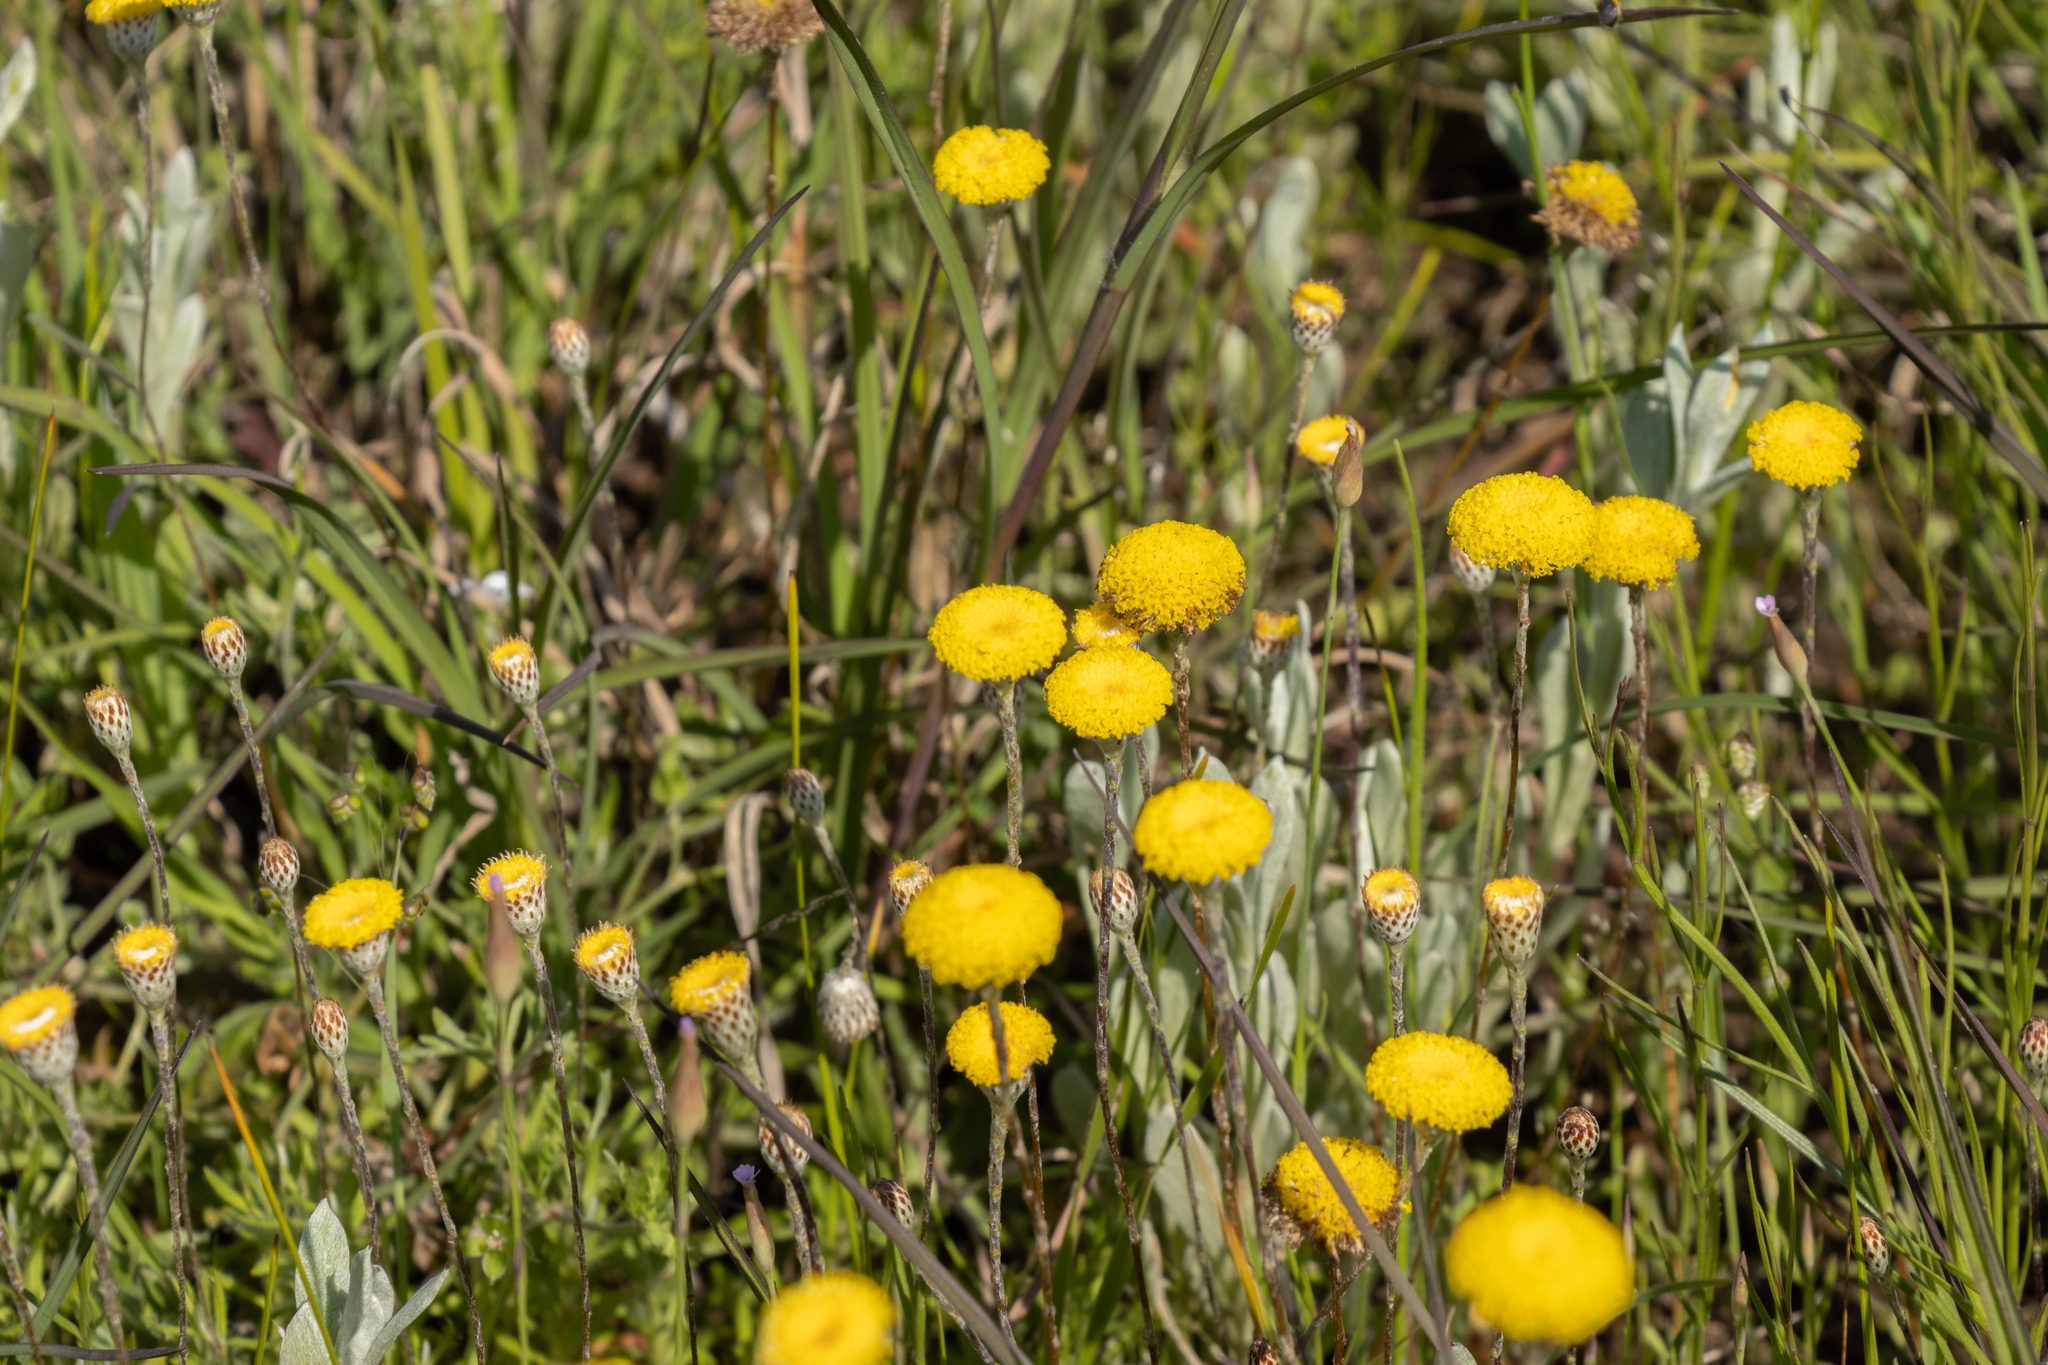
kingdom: Plantae
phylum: Tracheophyta
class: Magnoliopsida
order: Asterales
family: Asteraceae
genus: Leptorhynchos
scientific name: Leptorhynchos squamatus
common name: Scaly-buttons
